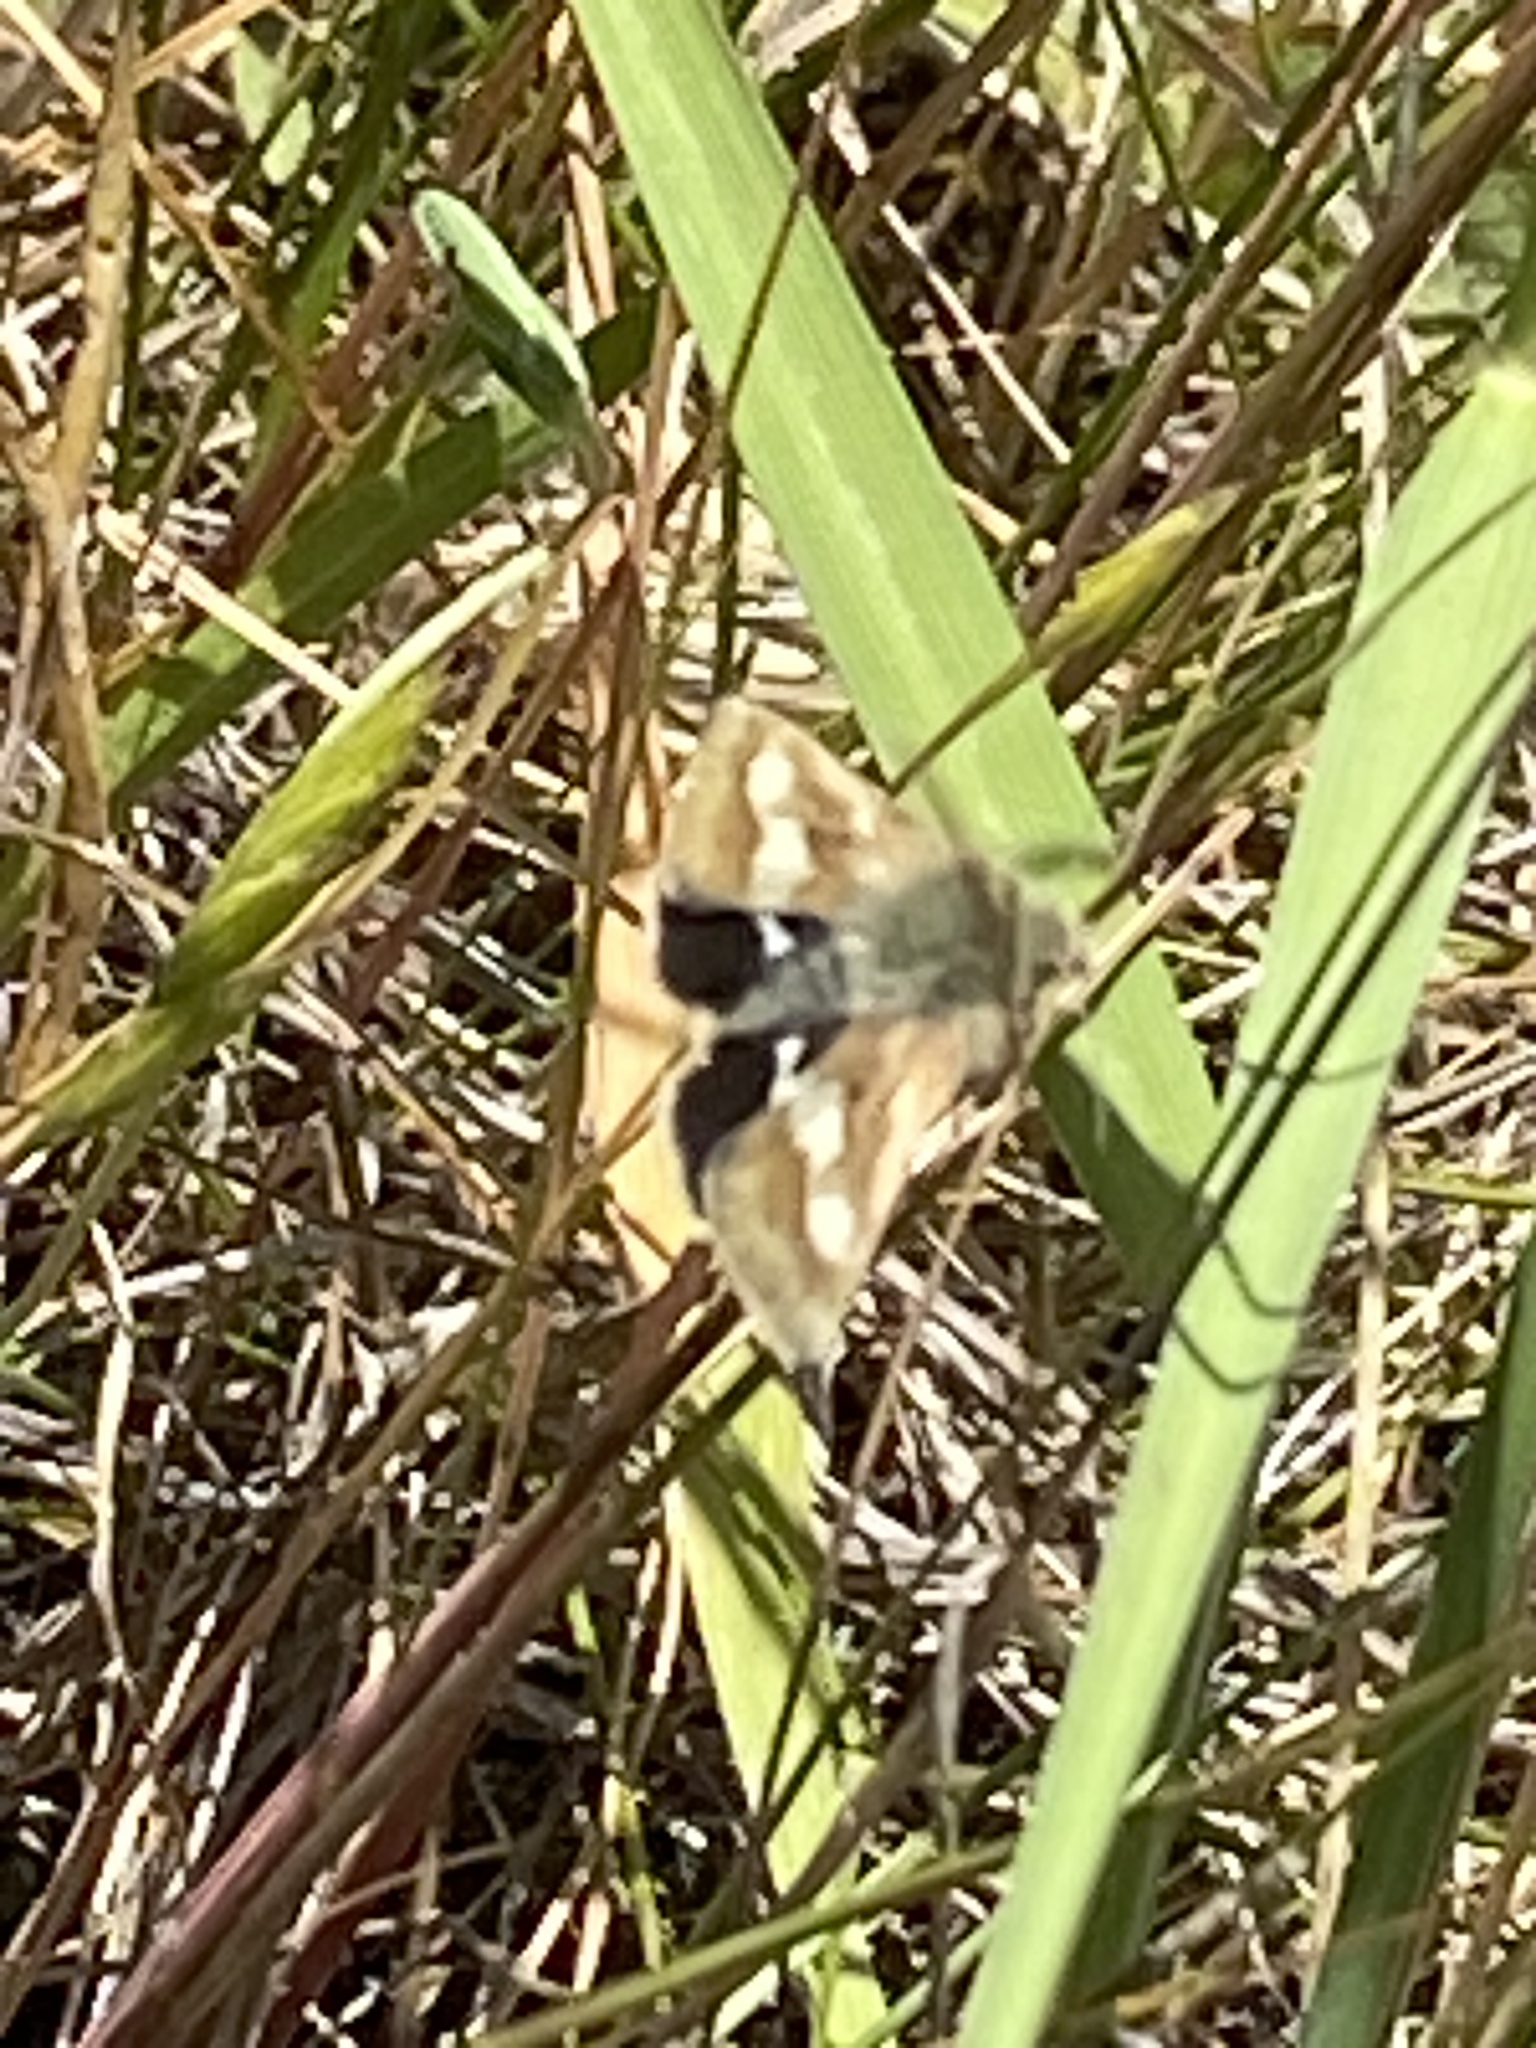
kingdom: Animalia
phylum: Arthropoda
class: Insecta
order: Lepidoptera
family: Noctuidae
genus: Heliothodes
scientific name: Heliothodes diminutiva
